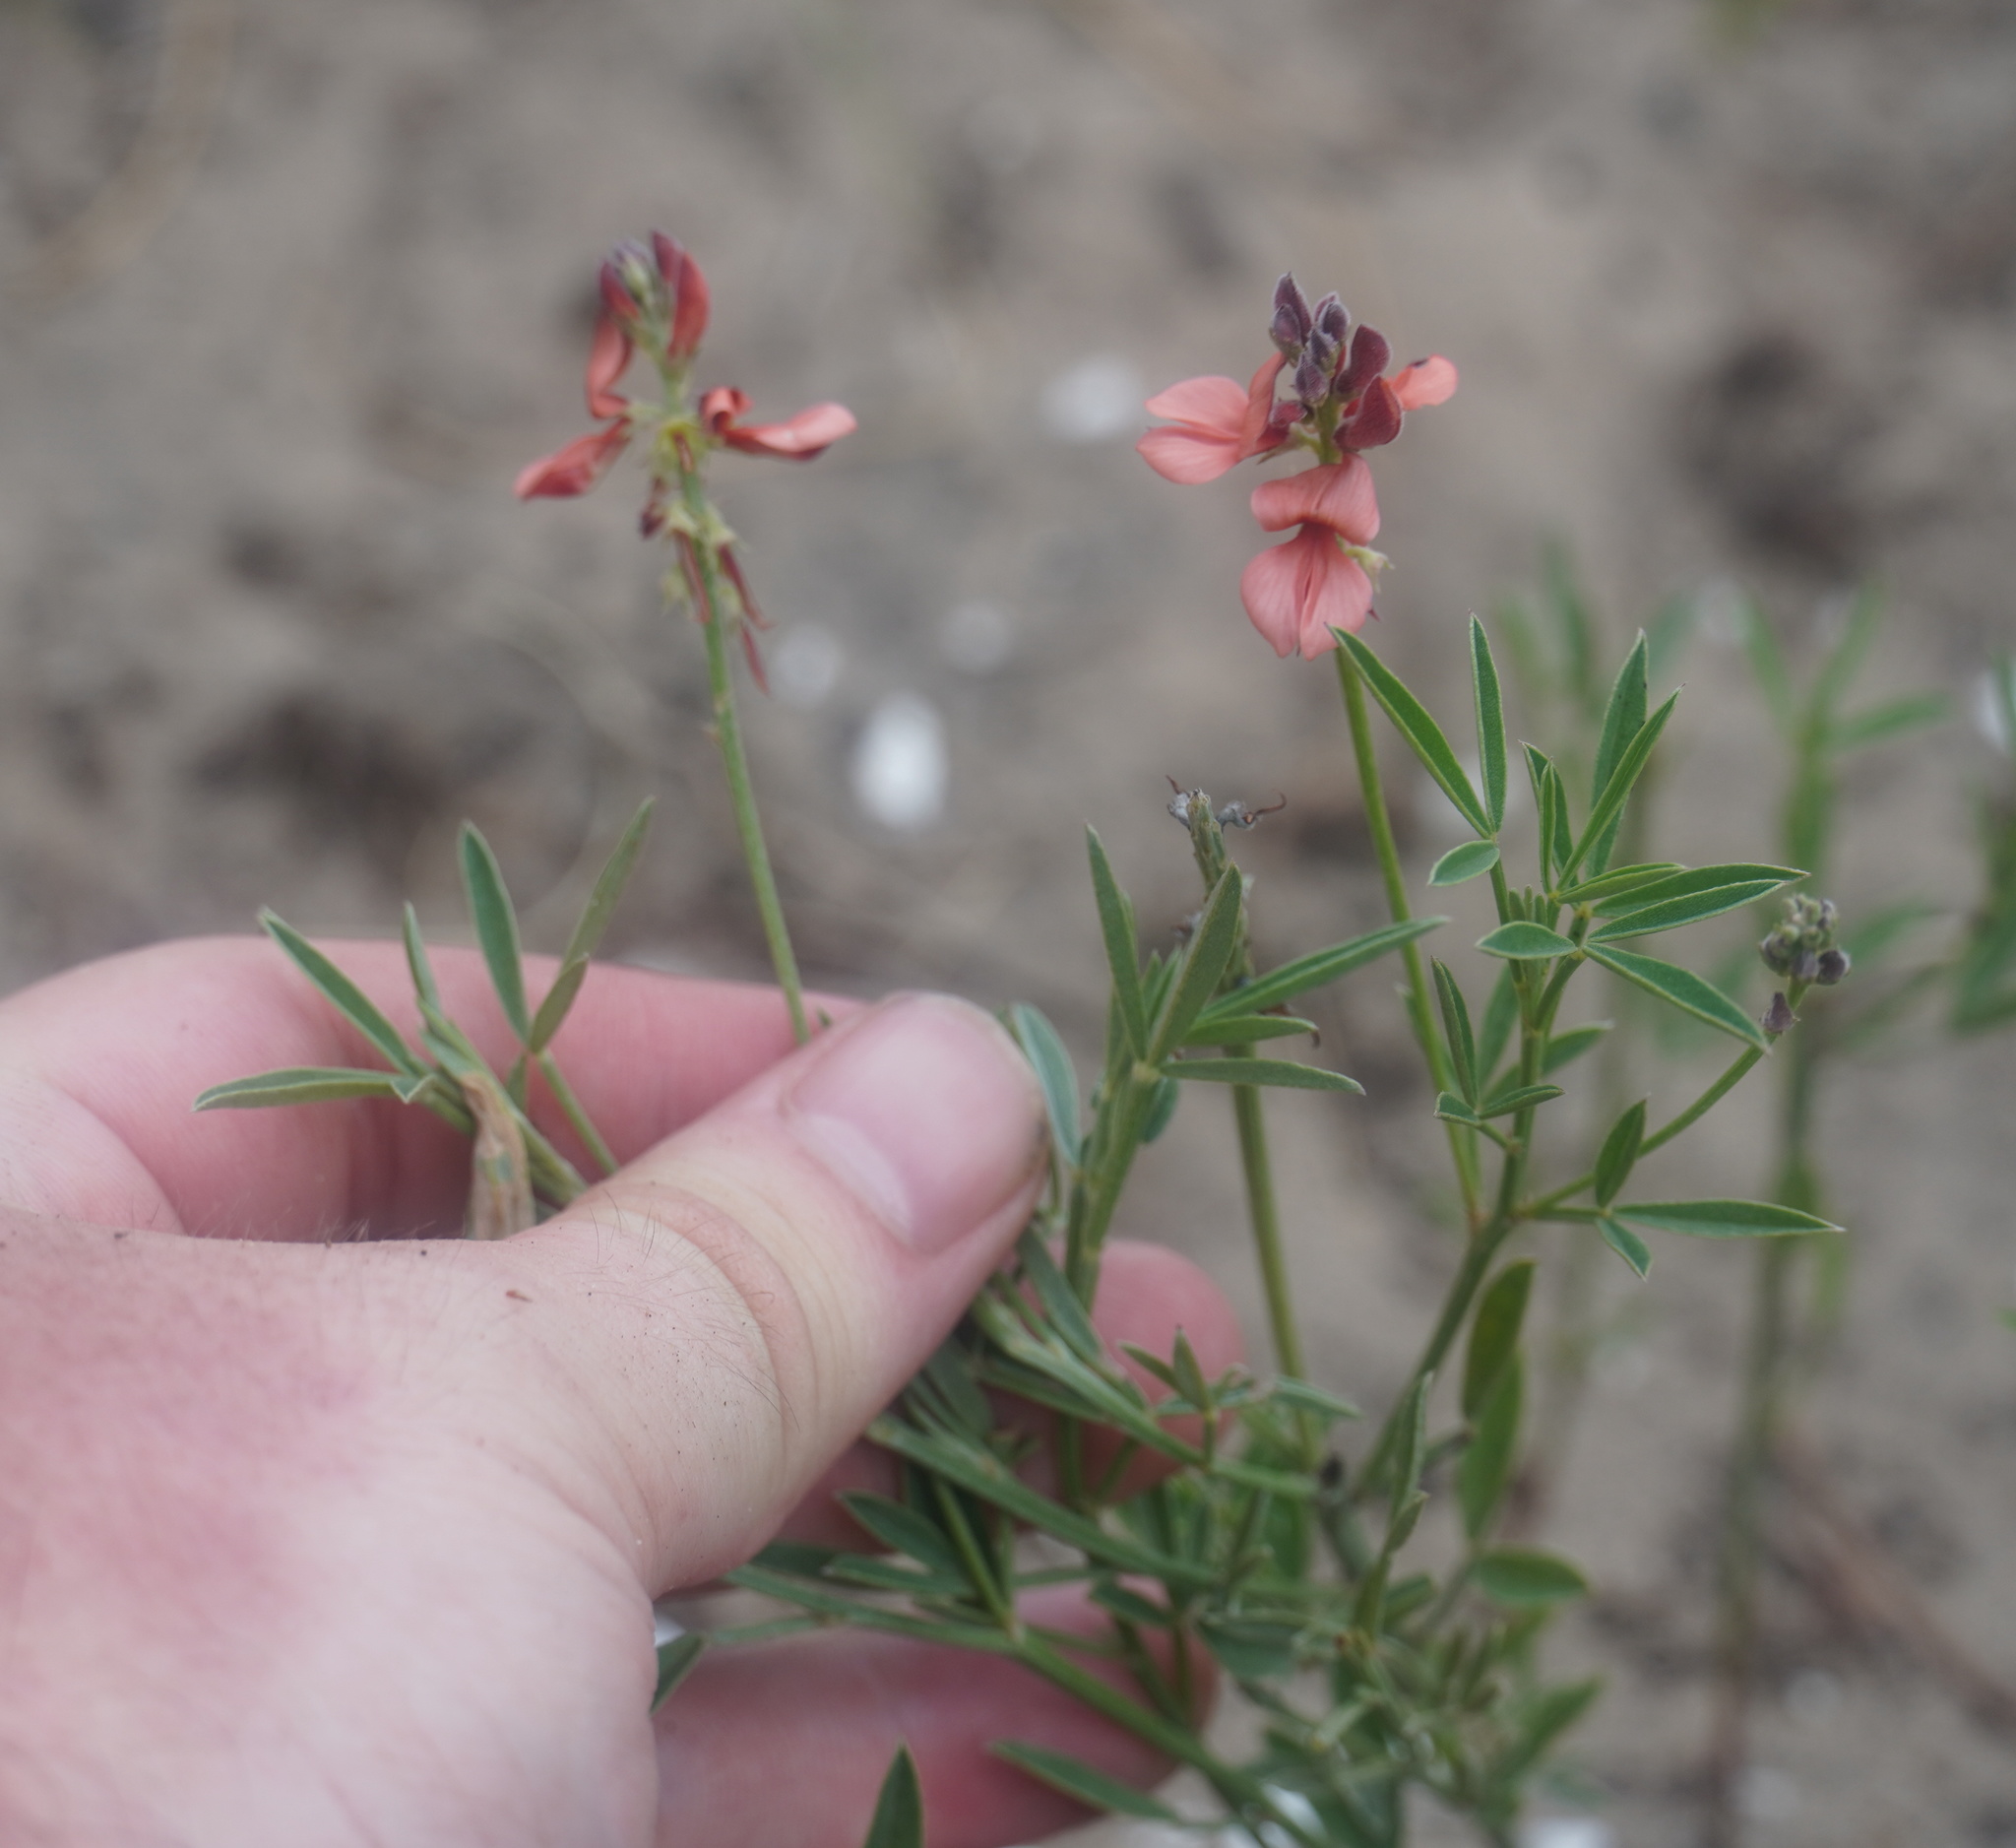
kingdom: Plantae
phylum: Tracheophyta
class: Magnoliopsida
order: Fabales
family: Fabaceae
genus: Indigofera
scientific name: Indigofera candicans
